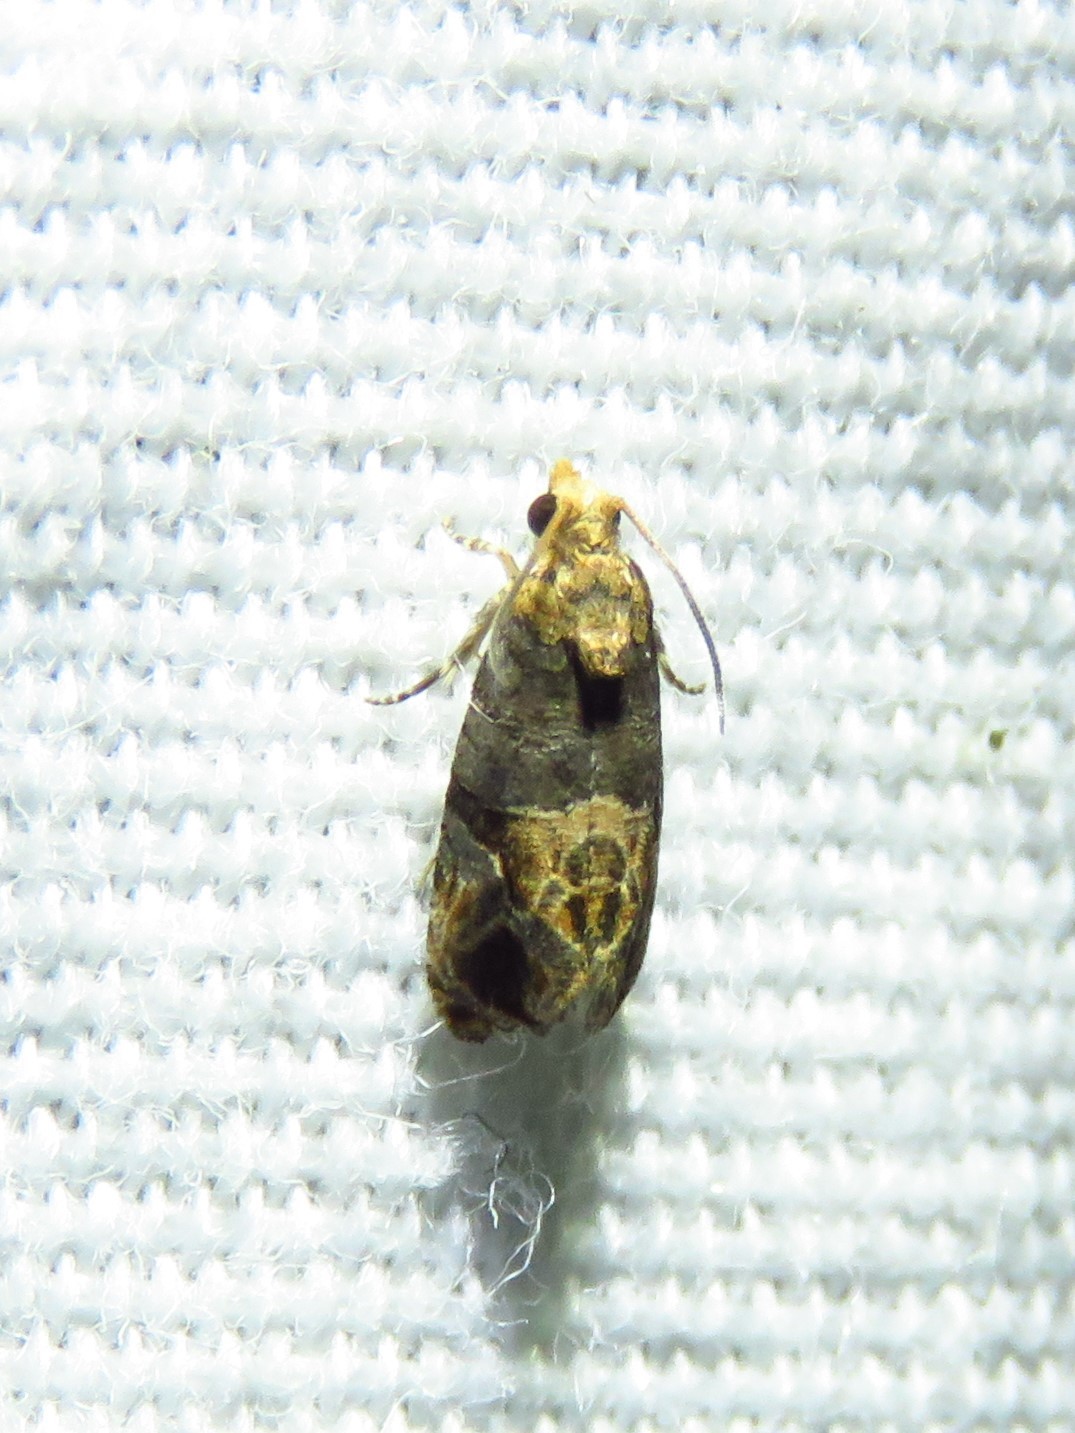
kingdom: Animalia
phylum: Arthropoda
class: Insecta
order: Lepidoptera
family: Tortricidae
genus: Paralobesia
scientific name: Paralobesia viteana
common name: Grape berry moth
